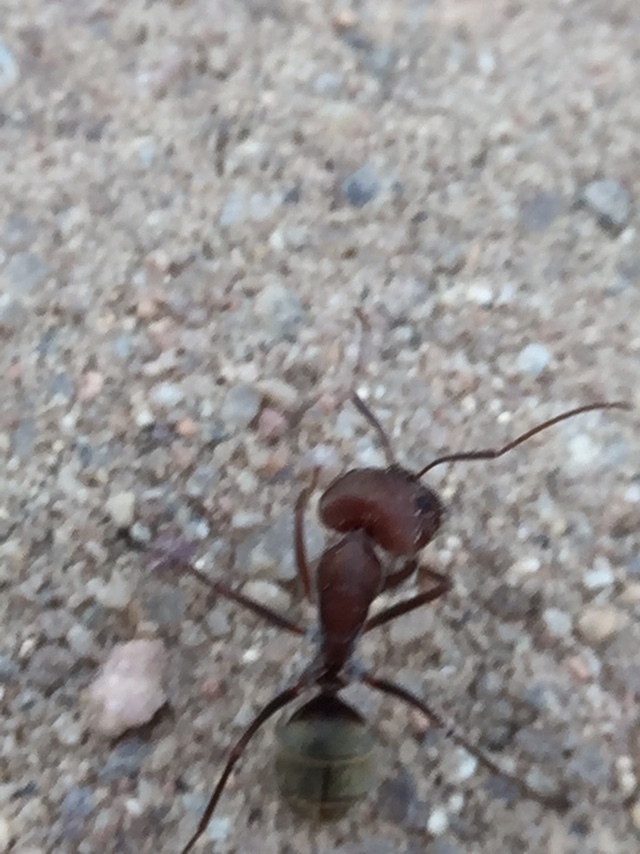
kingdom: Animalia
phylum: Arthropoda
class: Insecta
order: Hymenoptera
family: Formicidae
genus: Camponotus
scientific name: Camponotus rufoglaucus
